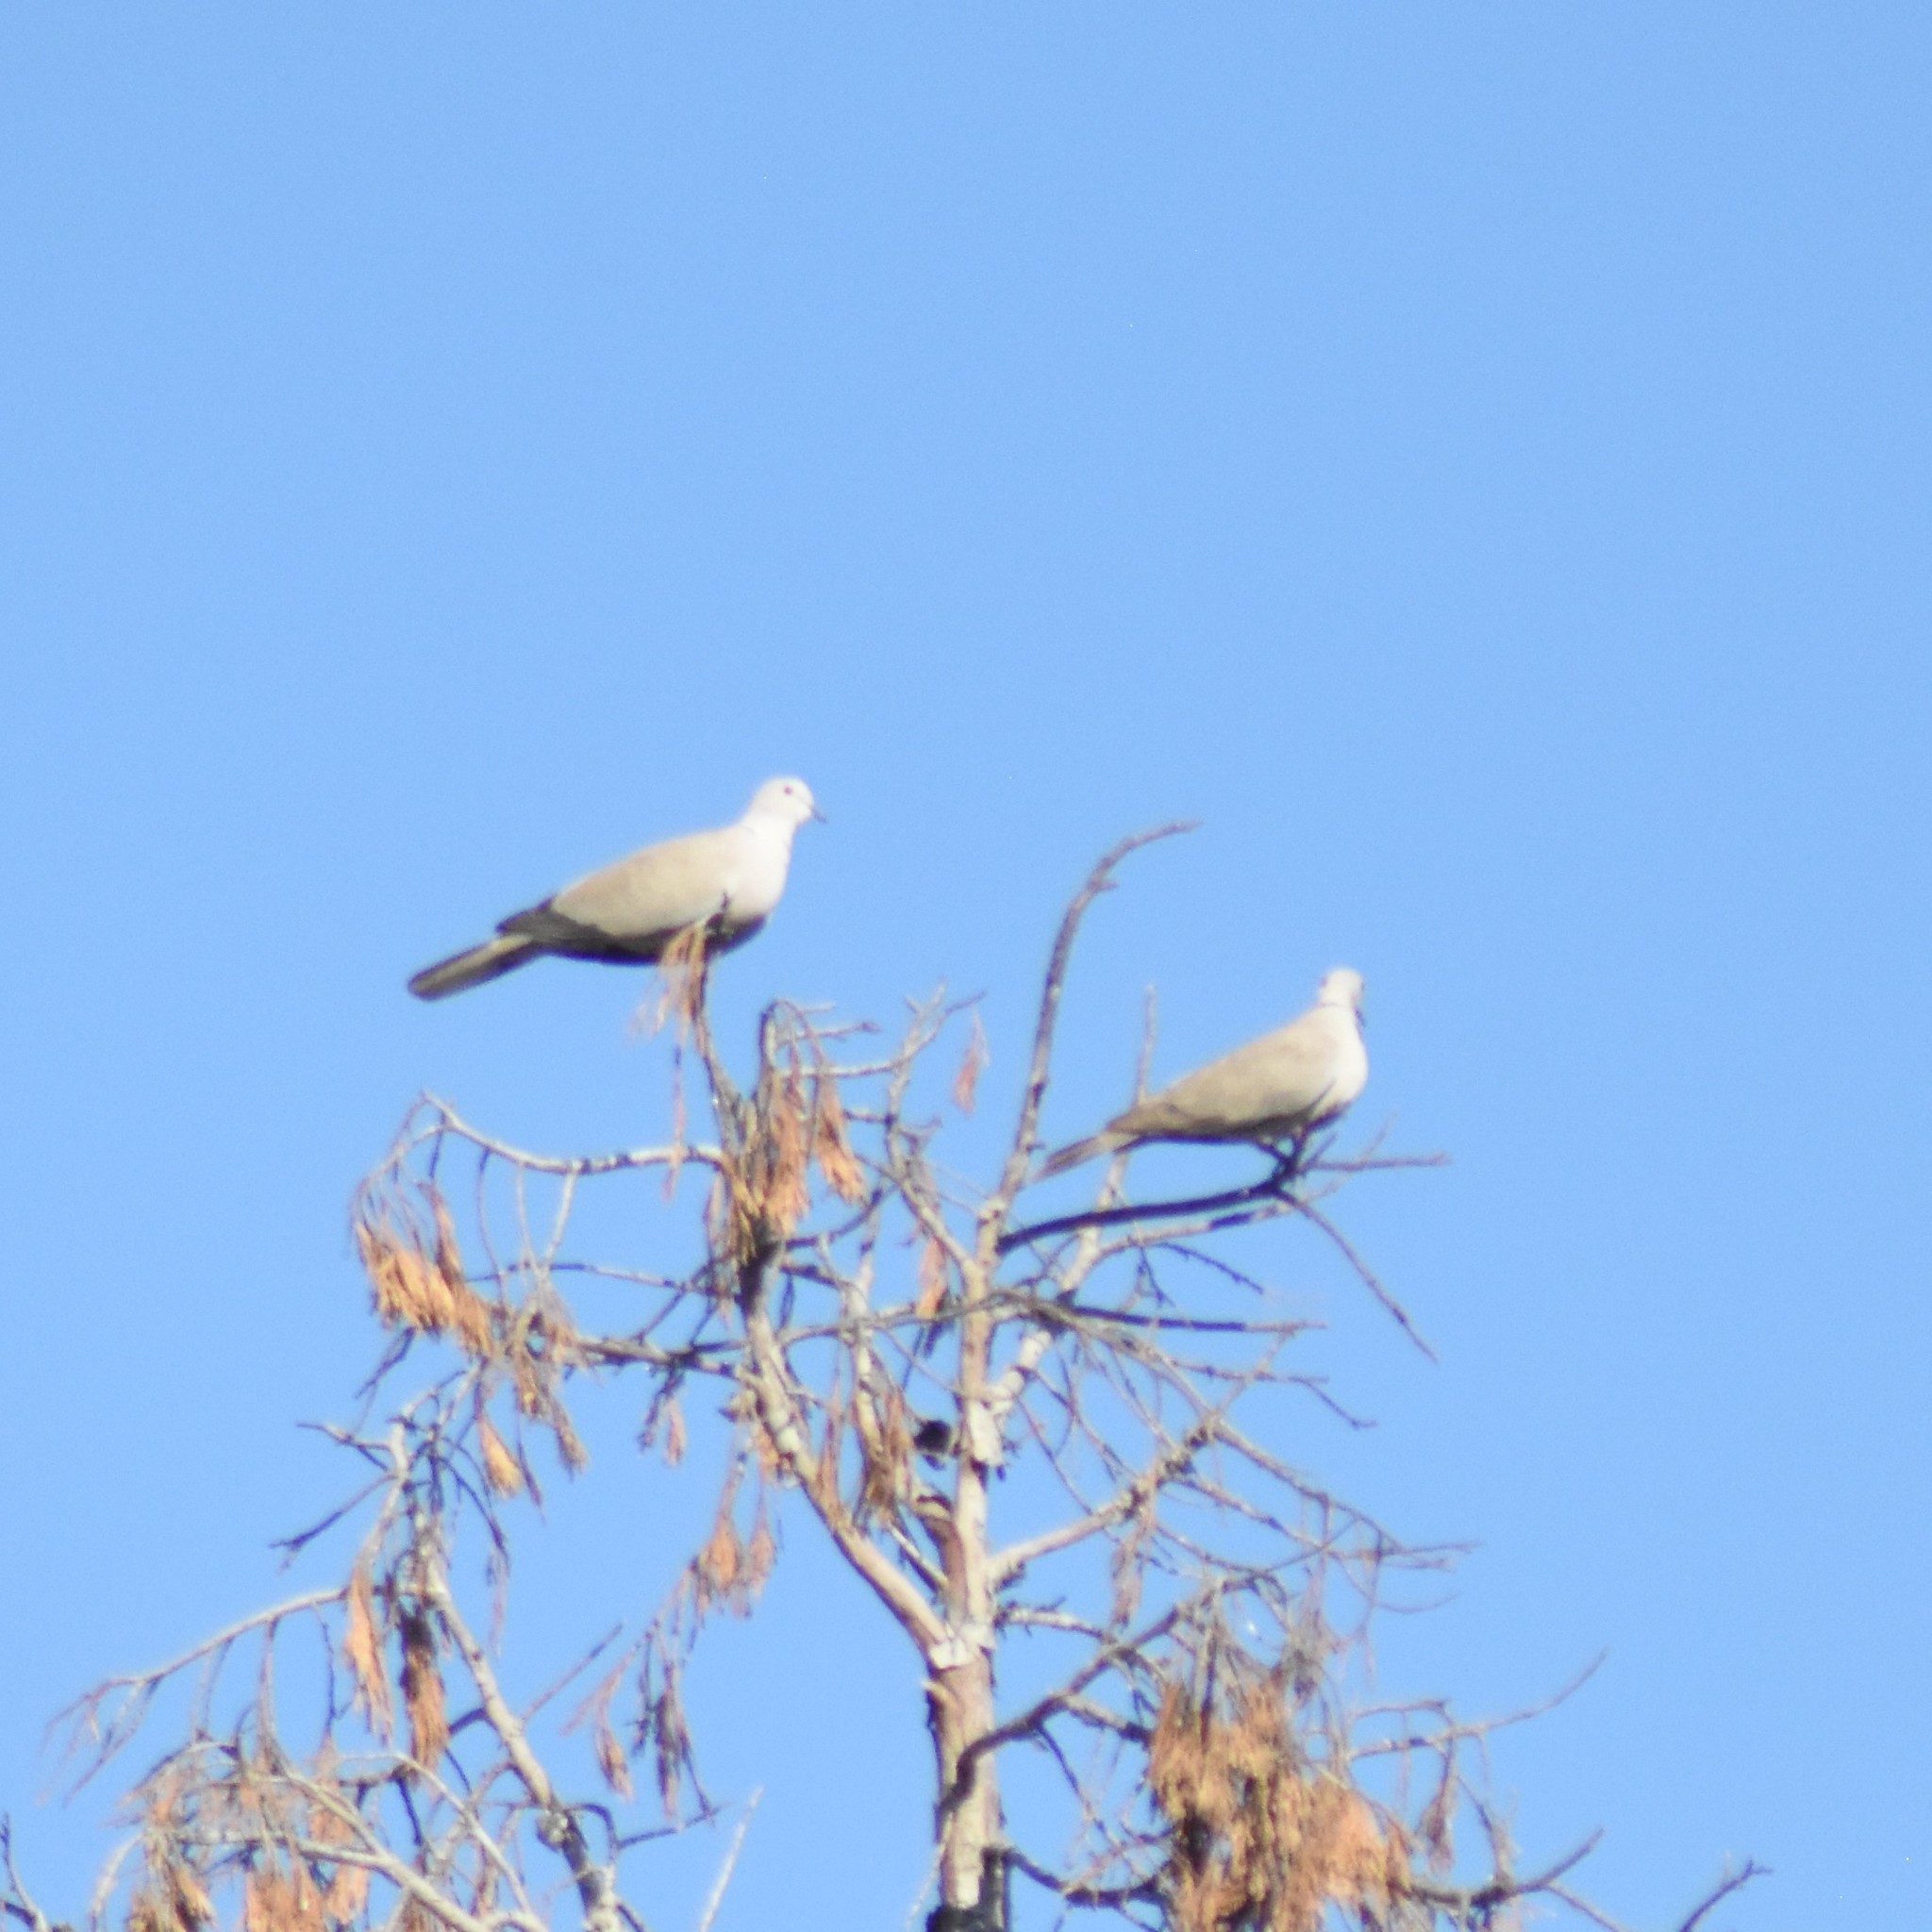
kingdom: Animalia
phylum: Chordata
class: Aves
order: Columbiformes
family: Columbidae
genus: Streptopelia
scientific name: Streptopelia decaocto
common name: Eurasian collared dove
